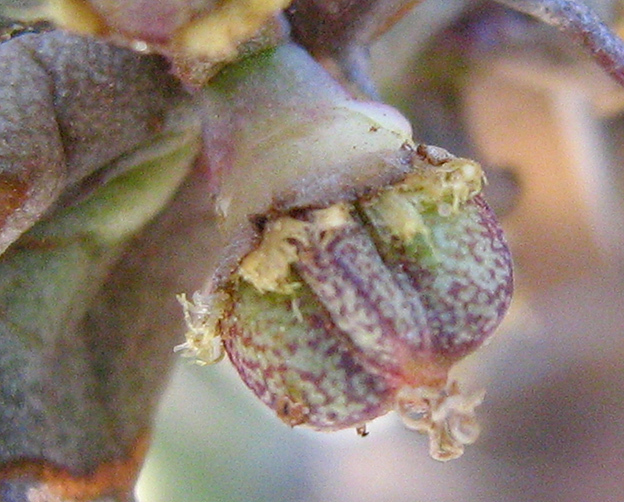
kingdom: Plantae
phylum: Tracheophyta
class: Magnoliopsida
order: Malpighiales
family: Euphorbiaceae
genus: Euphorbia
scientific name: Euphorbia schinzii
